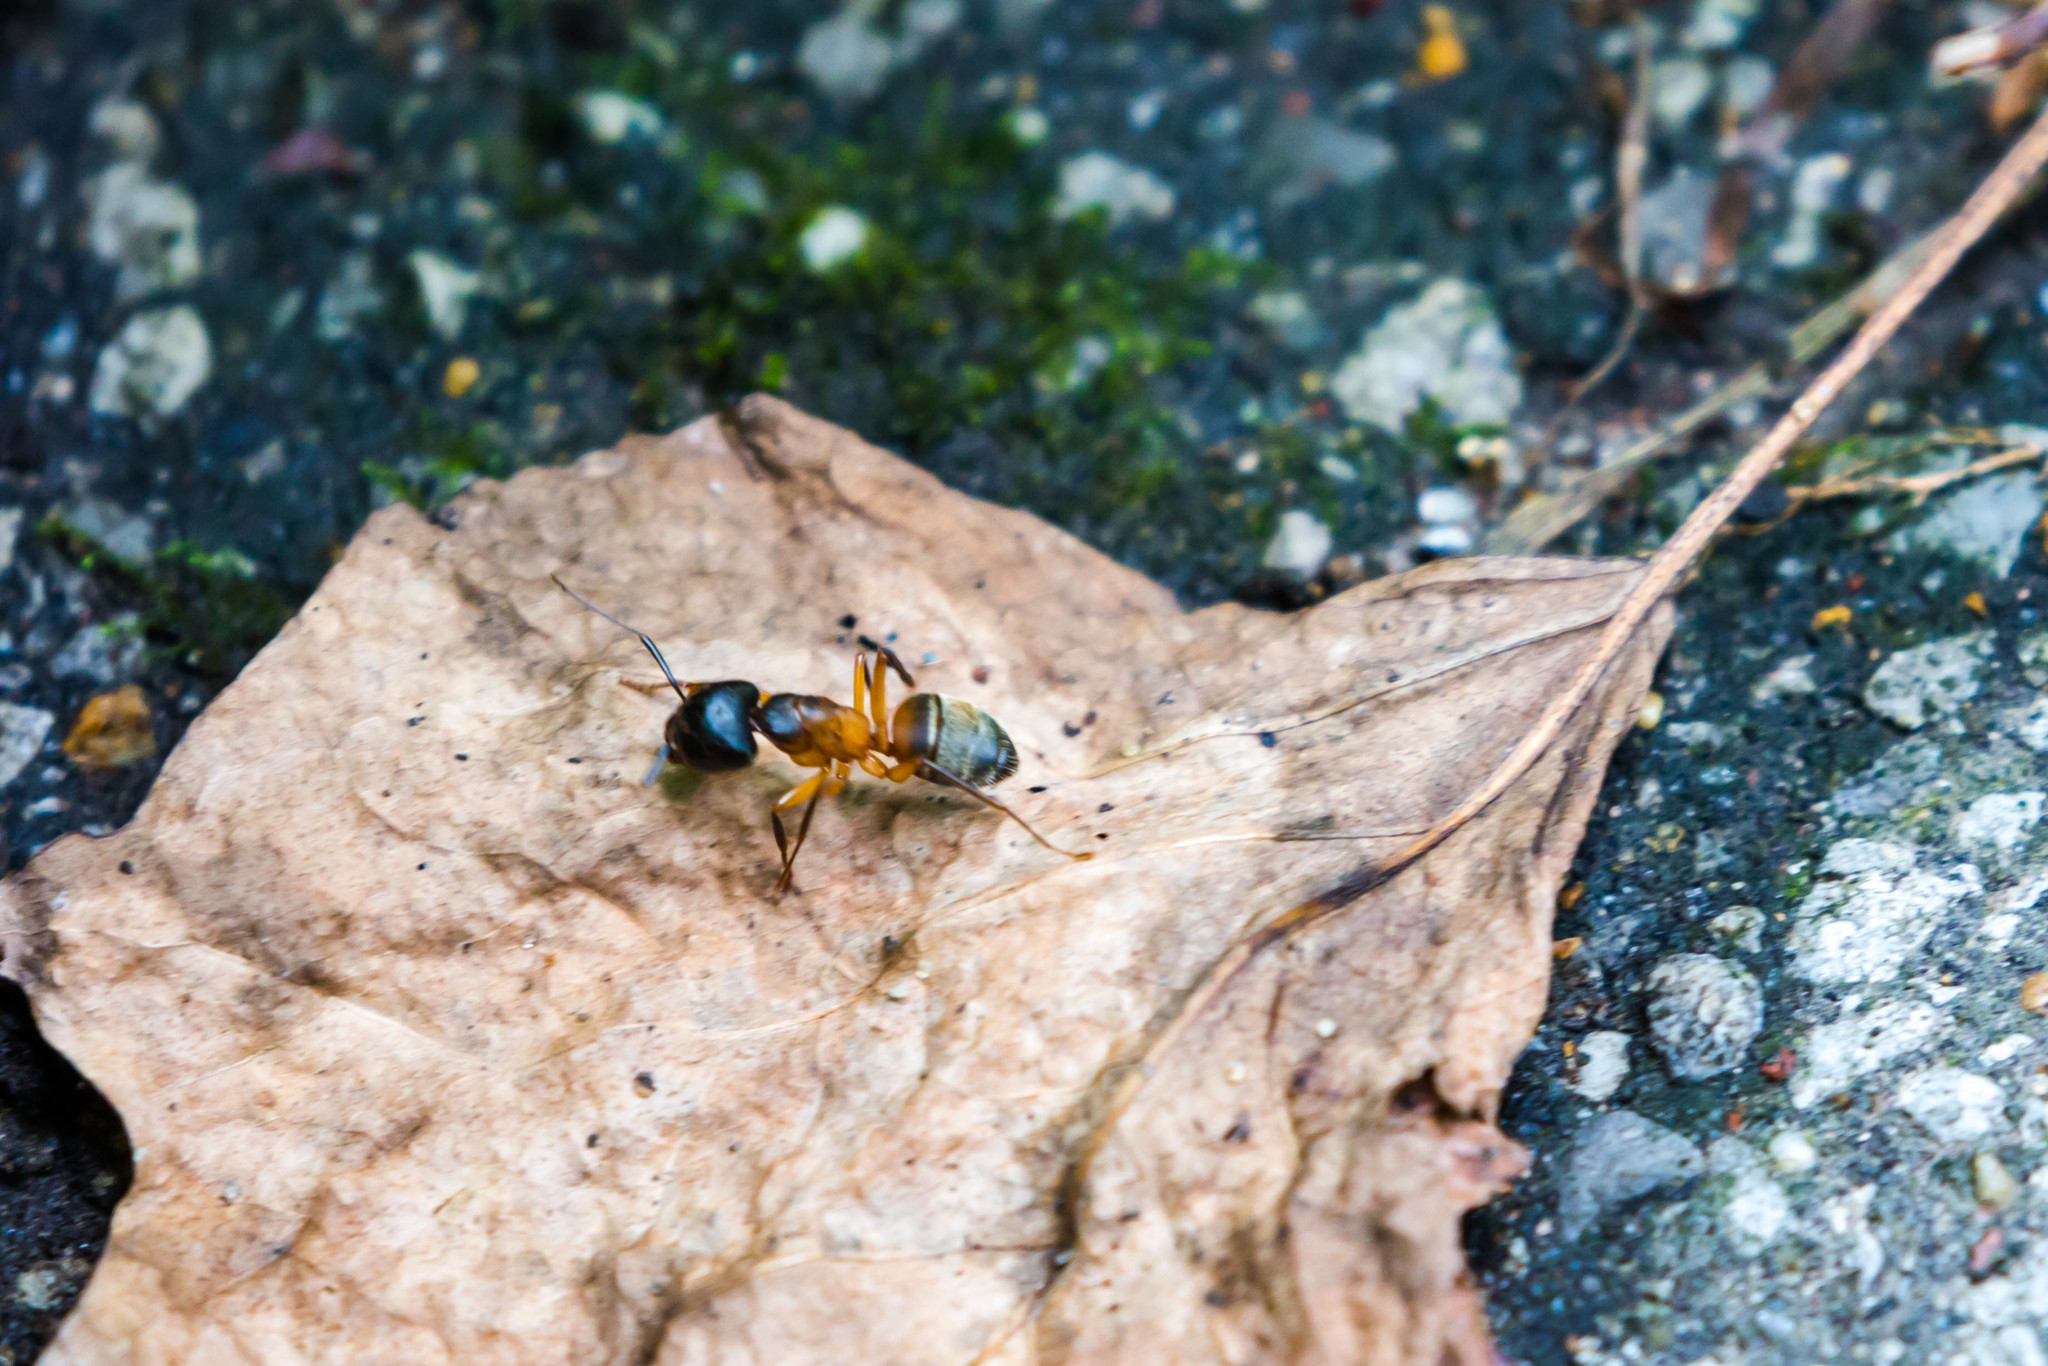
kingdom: Animalia
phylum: Arthropoda
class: Insecta
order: Hymenoptera
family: Formicidae
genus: Camponotus
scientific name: Camponotus chromaiodes
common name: Red carpenter ant
